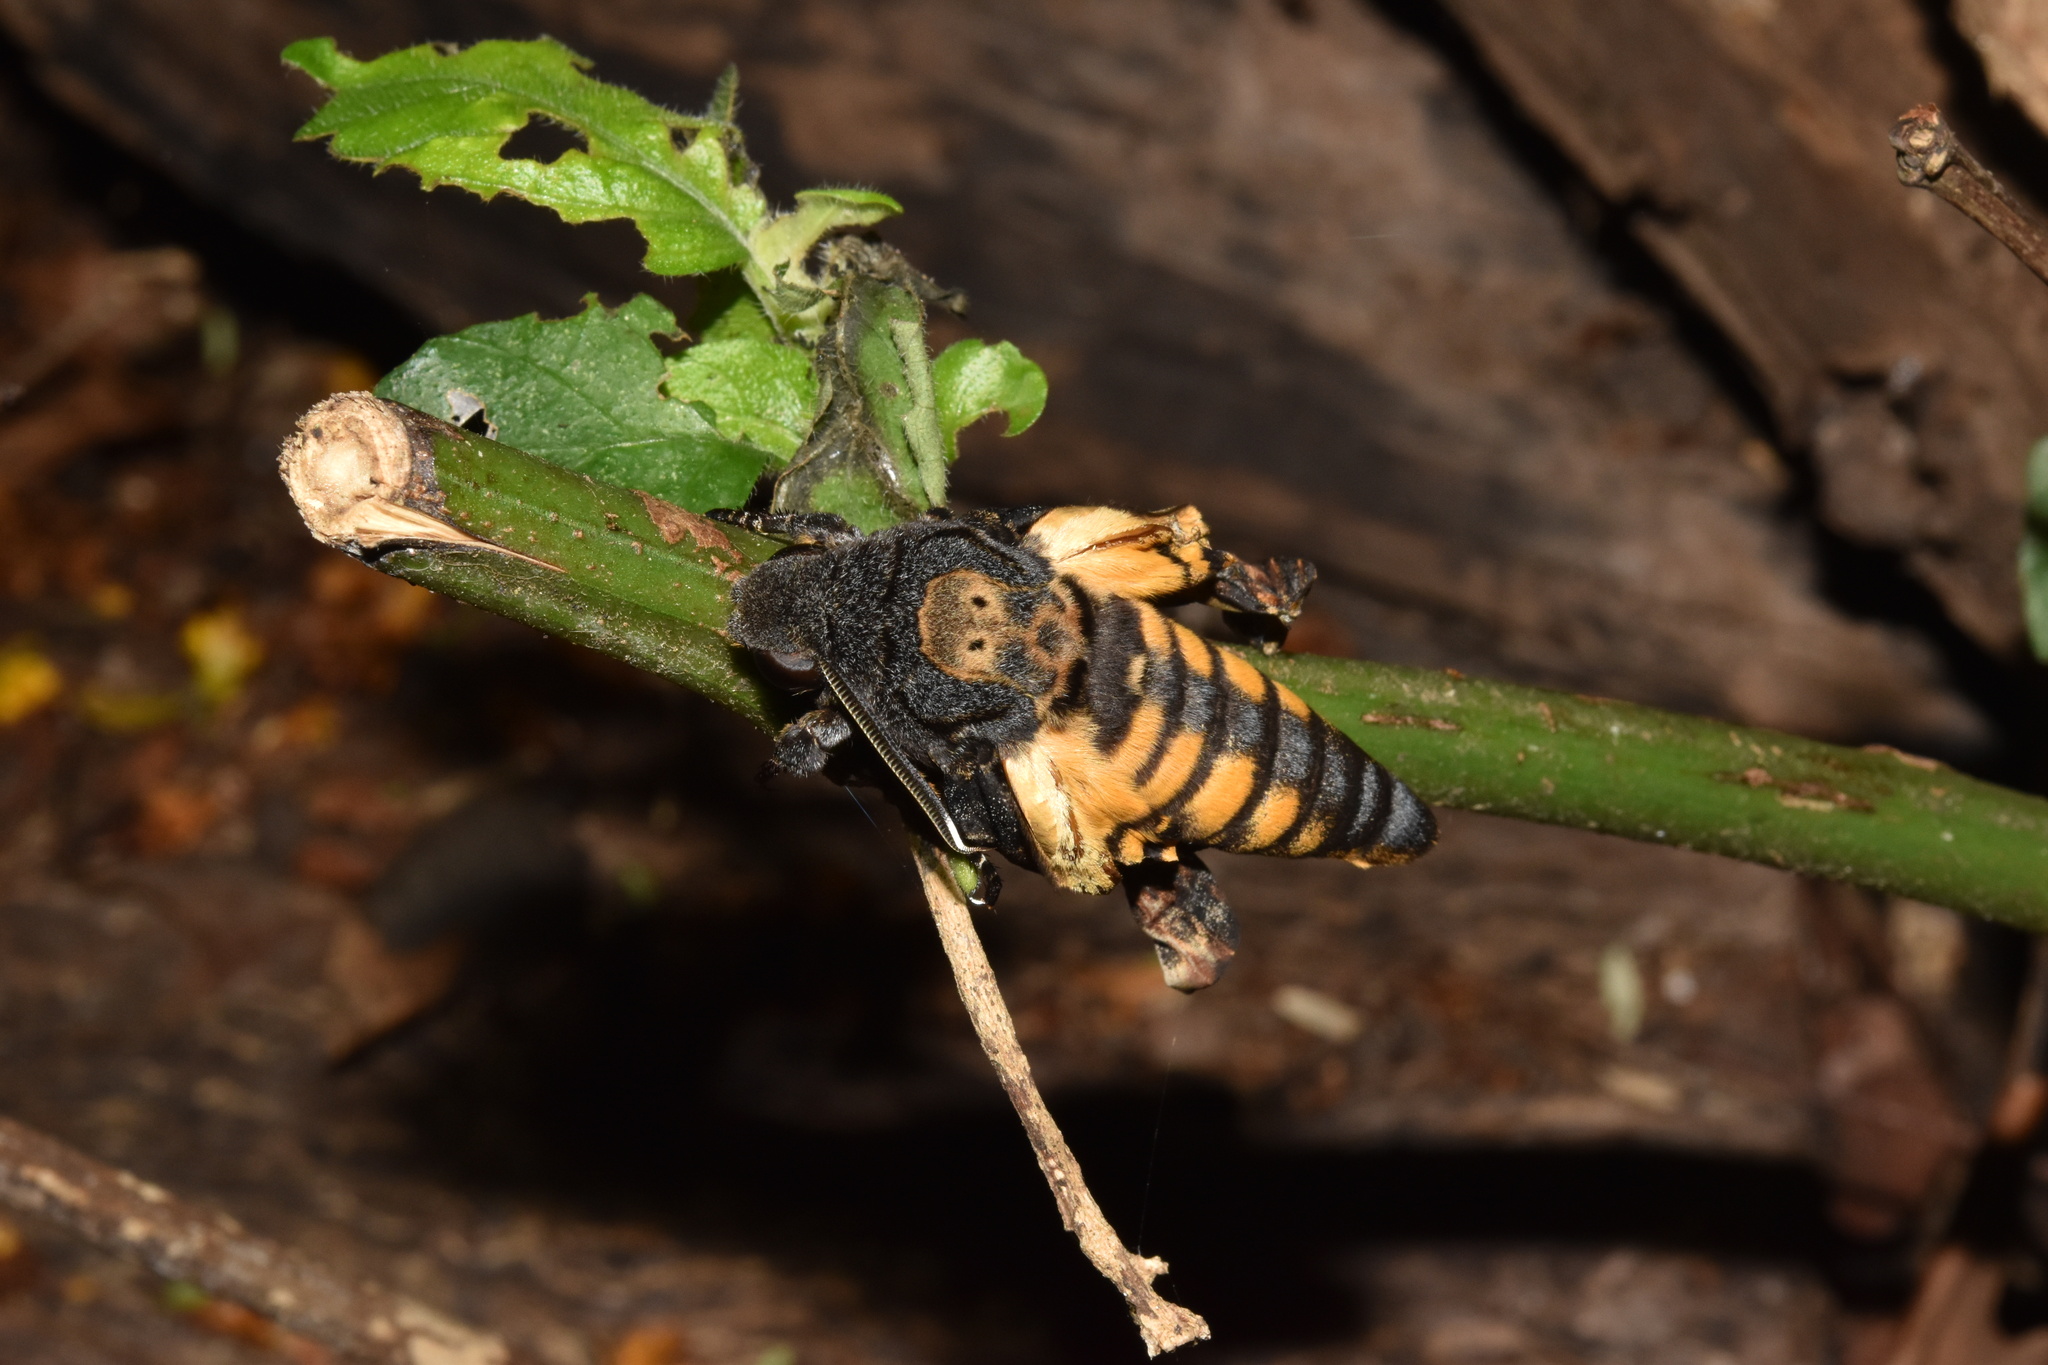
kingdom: Animalia
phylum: Arthropoda
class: Insecta
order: Lepidoptera
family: Sphingidae
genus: Acherontia
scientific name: Acherontia atropos
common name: Death's-head hawk moth
